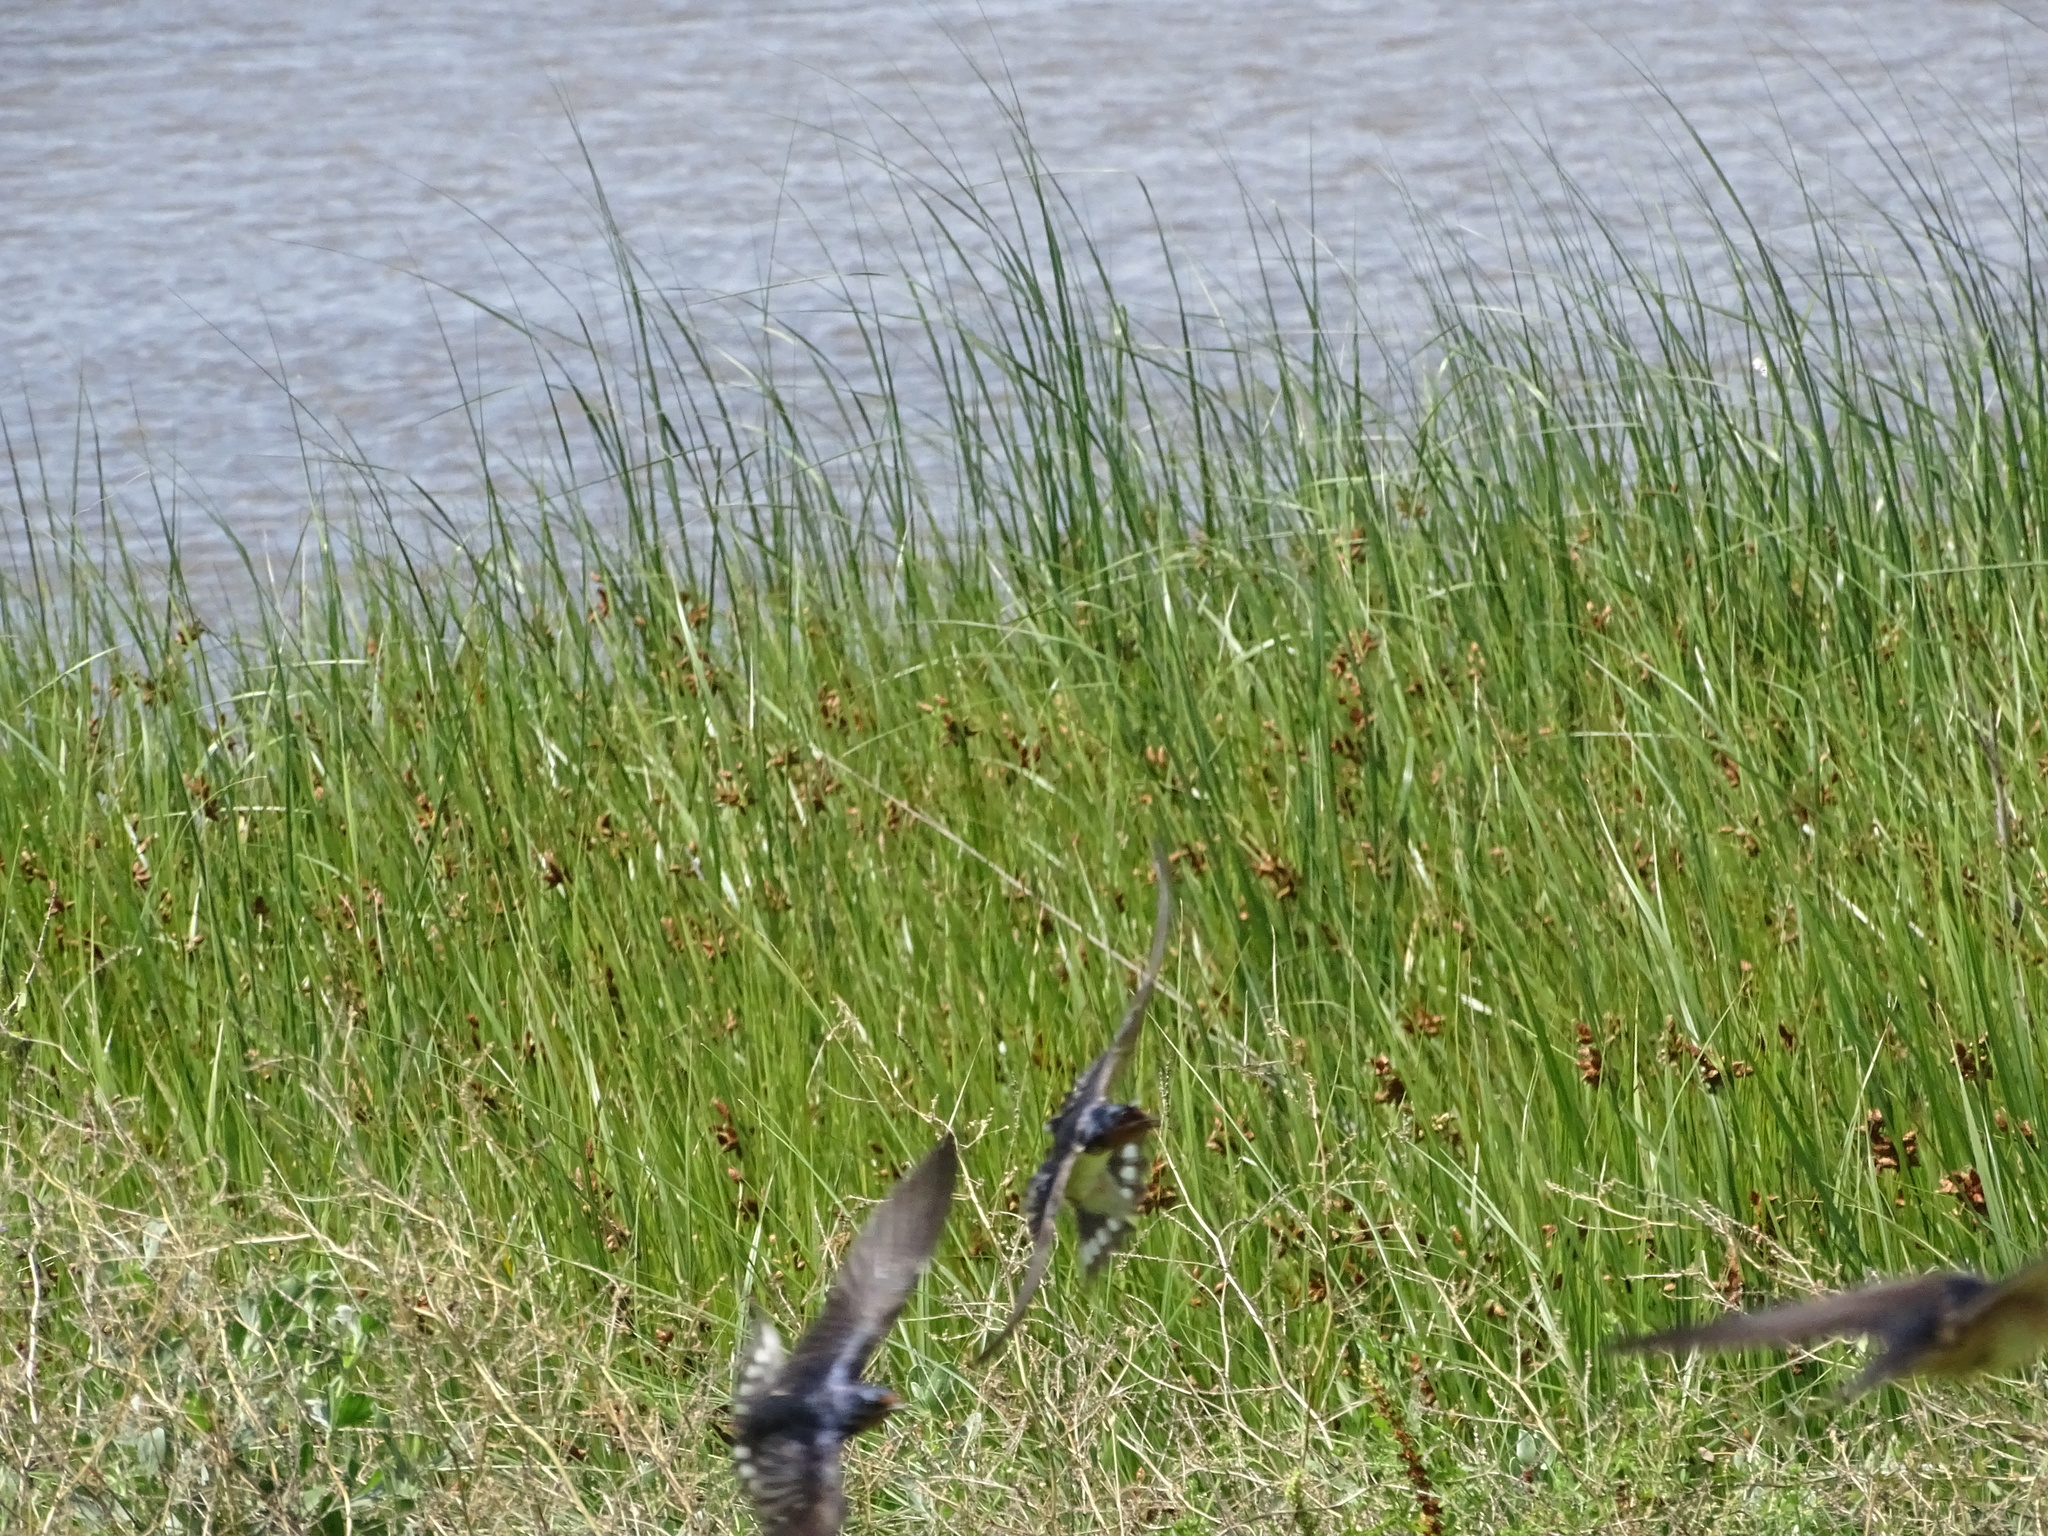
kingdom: Animalia
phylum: Chordata
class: Aves
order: Passeriformes
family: Hirundinidae
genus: Hirundo
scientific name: Hirundo rustica
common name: Barn swallow
